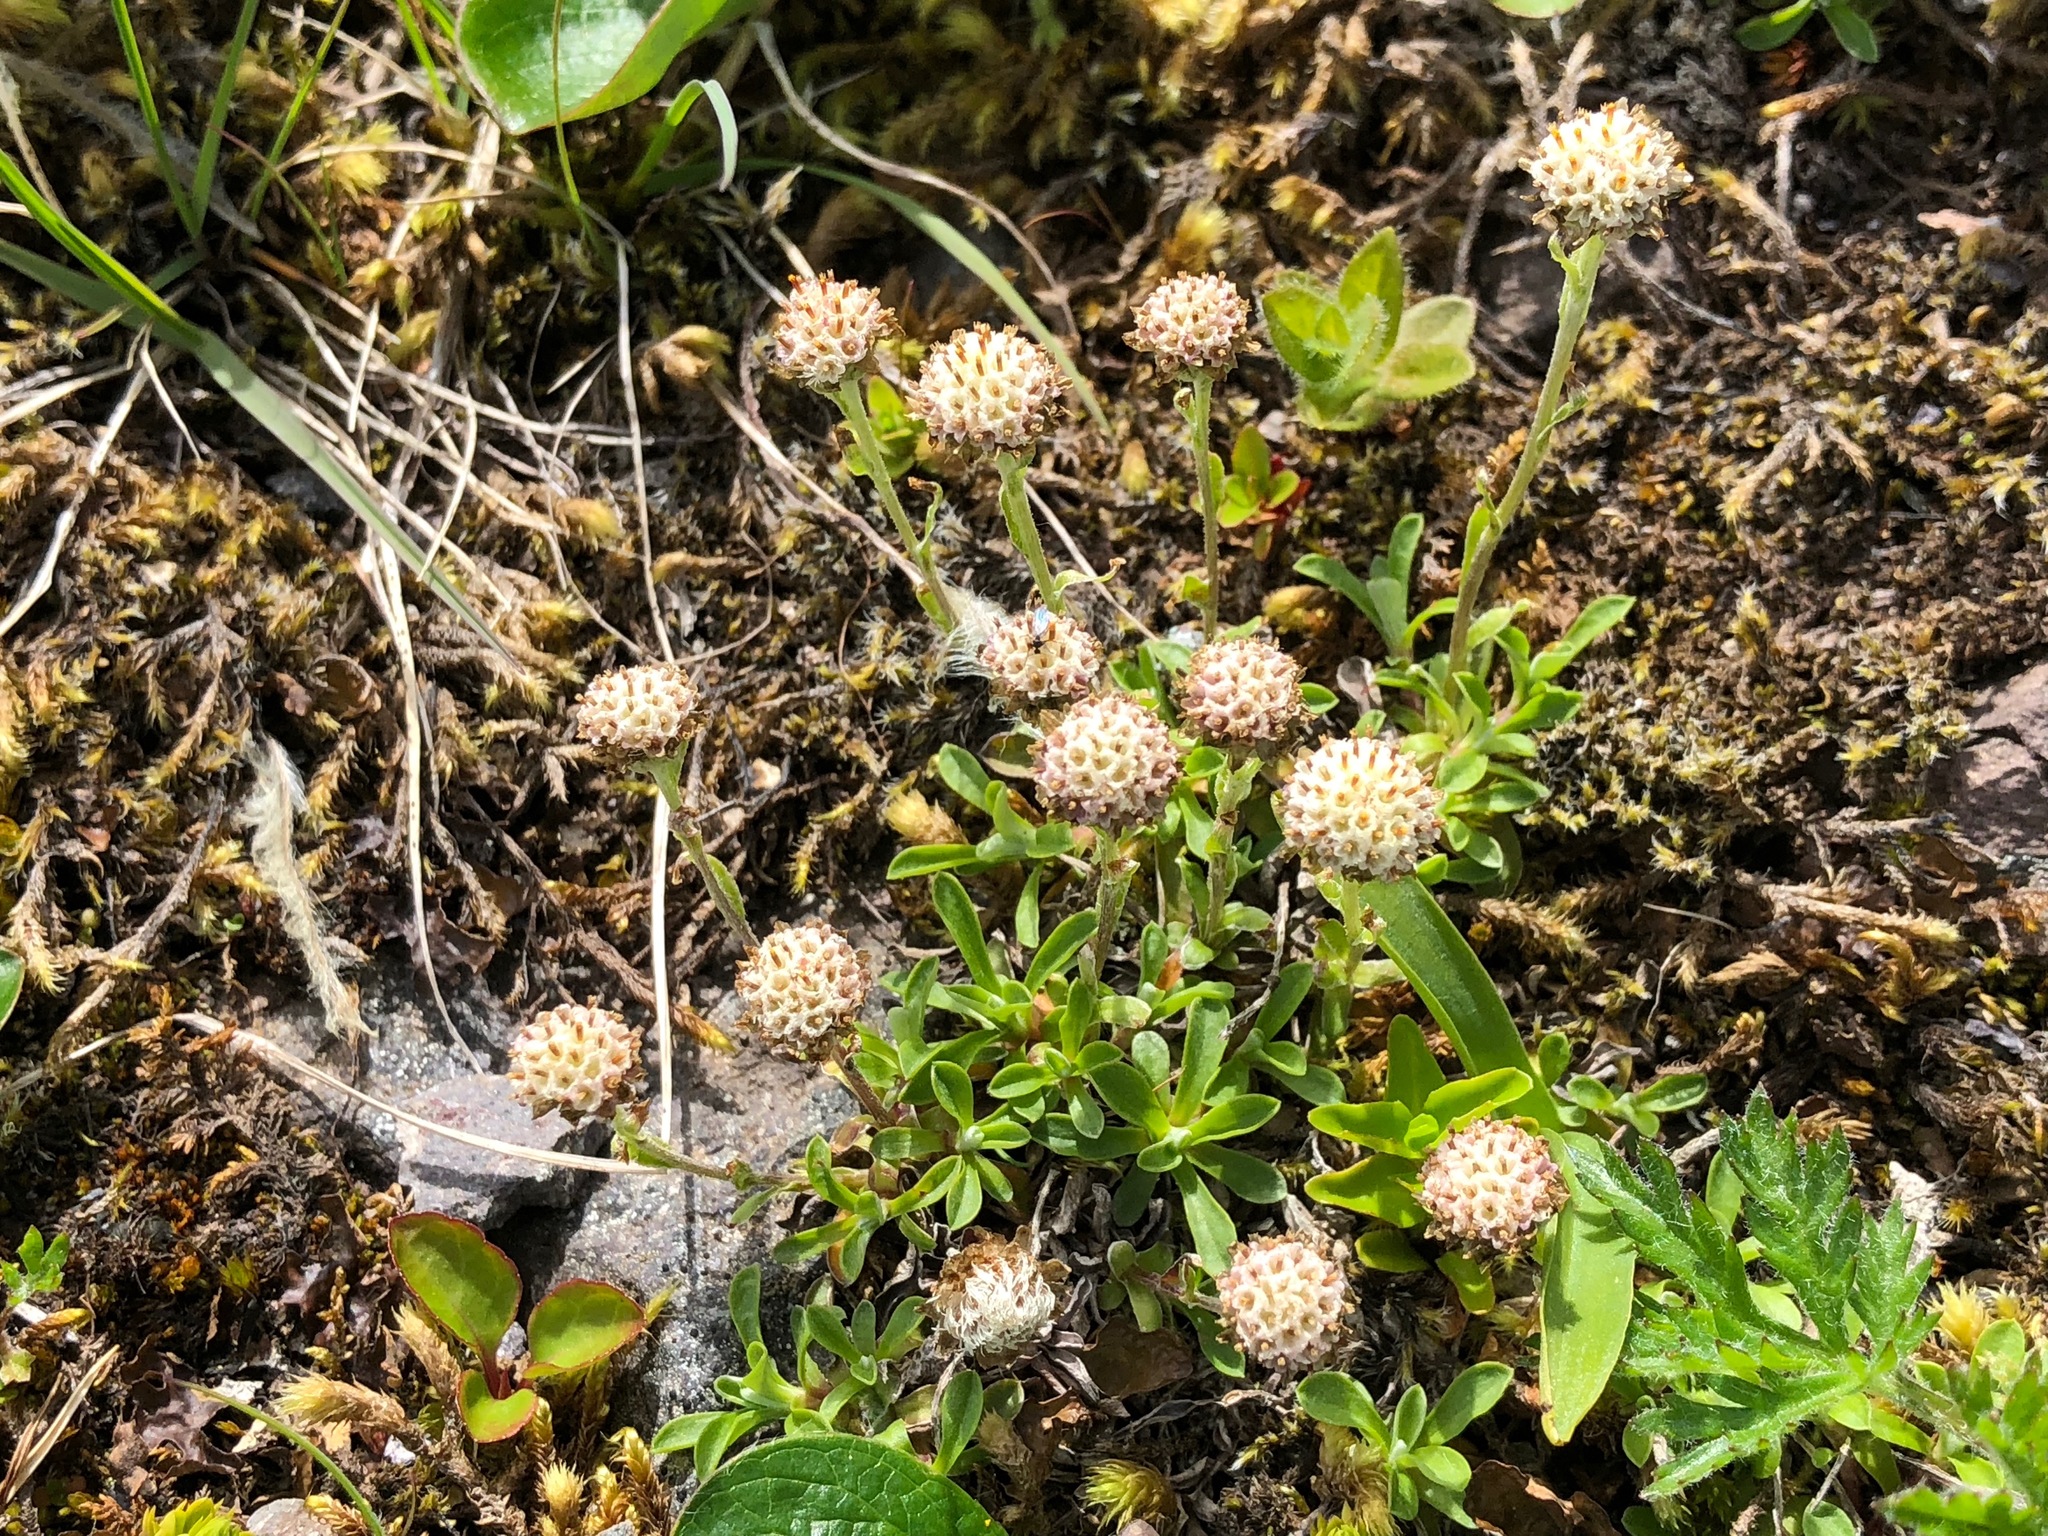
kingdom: Plantae
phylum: Tracheophyta
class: Magnoliopsida
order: Asterales
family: Asteraceae
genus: Antennaria
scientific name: Antennaria monocephala
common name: Pygmy pussytoes
